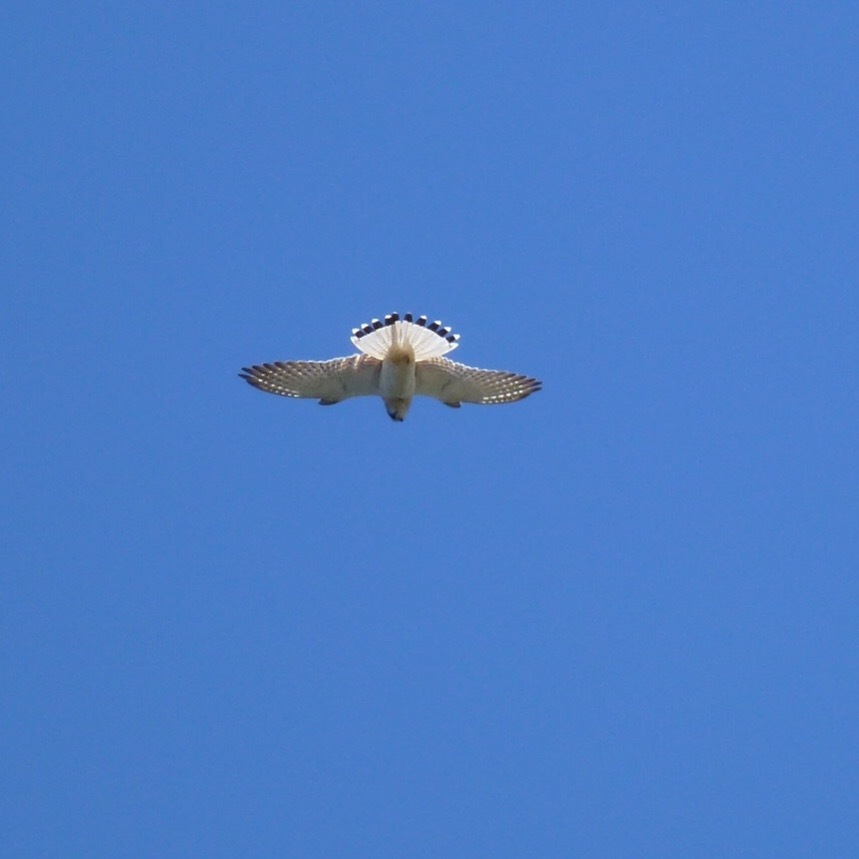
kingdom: Animalia
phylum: Chordata
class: Aves
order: Falconiformes
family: Falconidae
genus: Falco
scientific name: Falco cenchroides
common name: Nankeen kestrel
